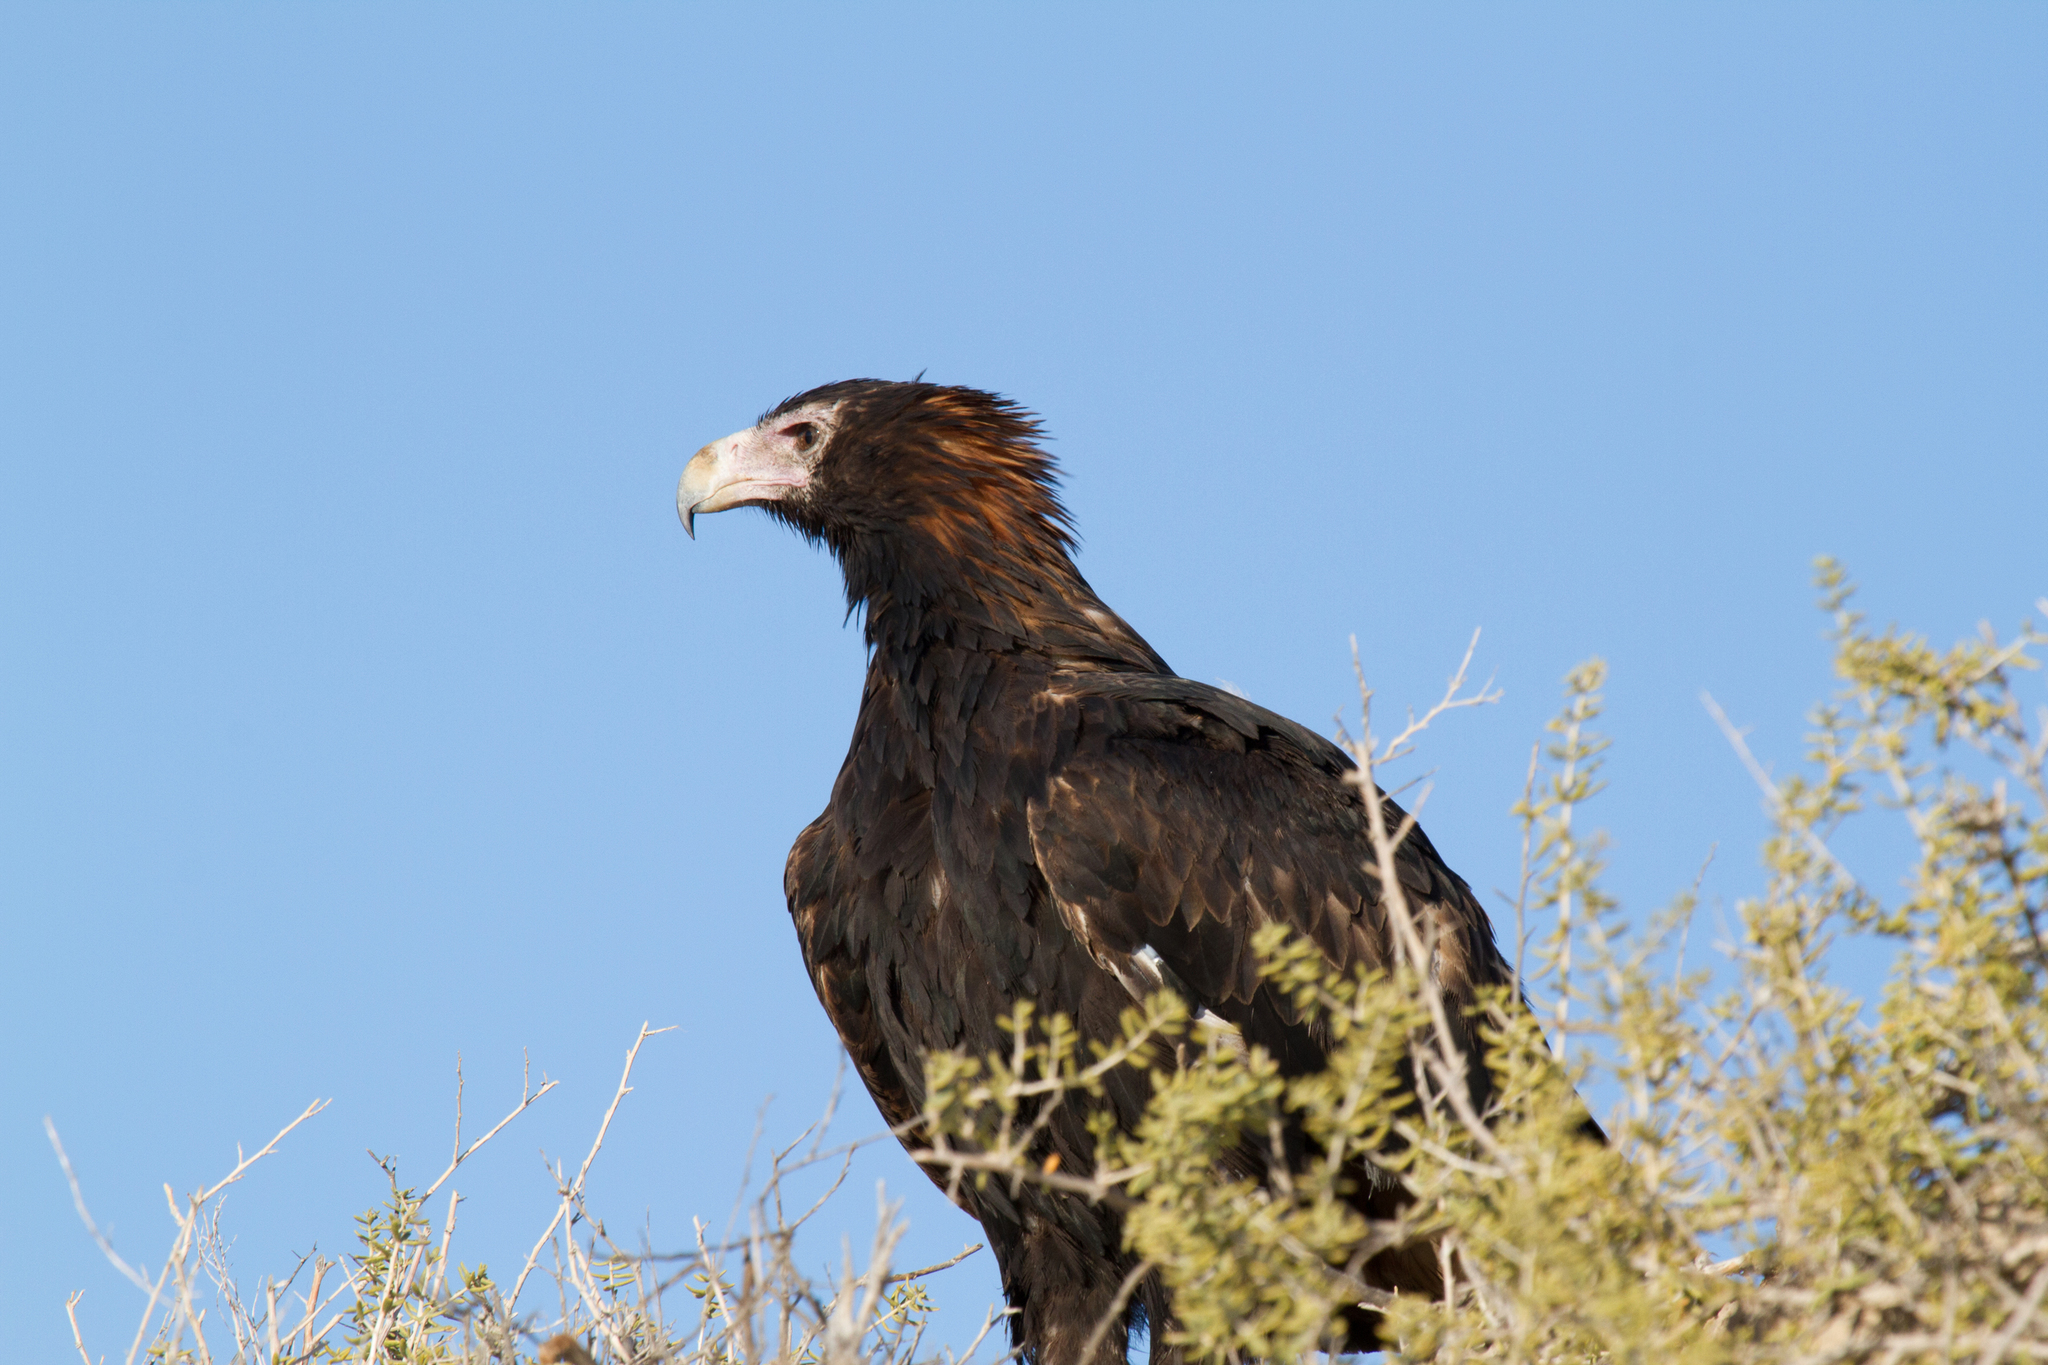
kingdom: Animalia
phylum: Chordata
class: Aves
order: Accipitriformes
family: Accipitridae
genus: Aquila
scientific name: Aquila audax
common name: Wedge-tailed eagle
